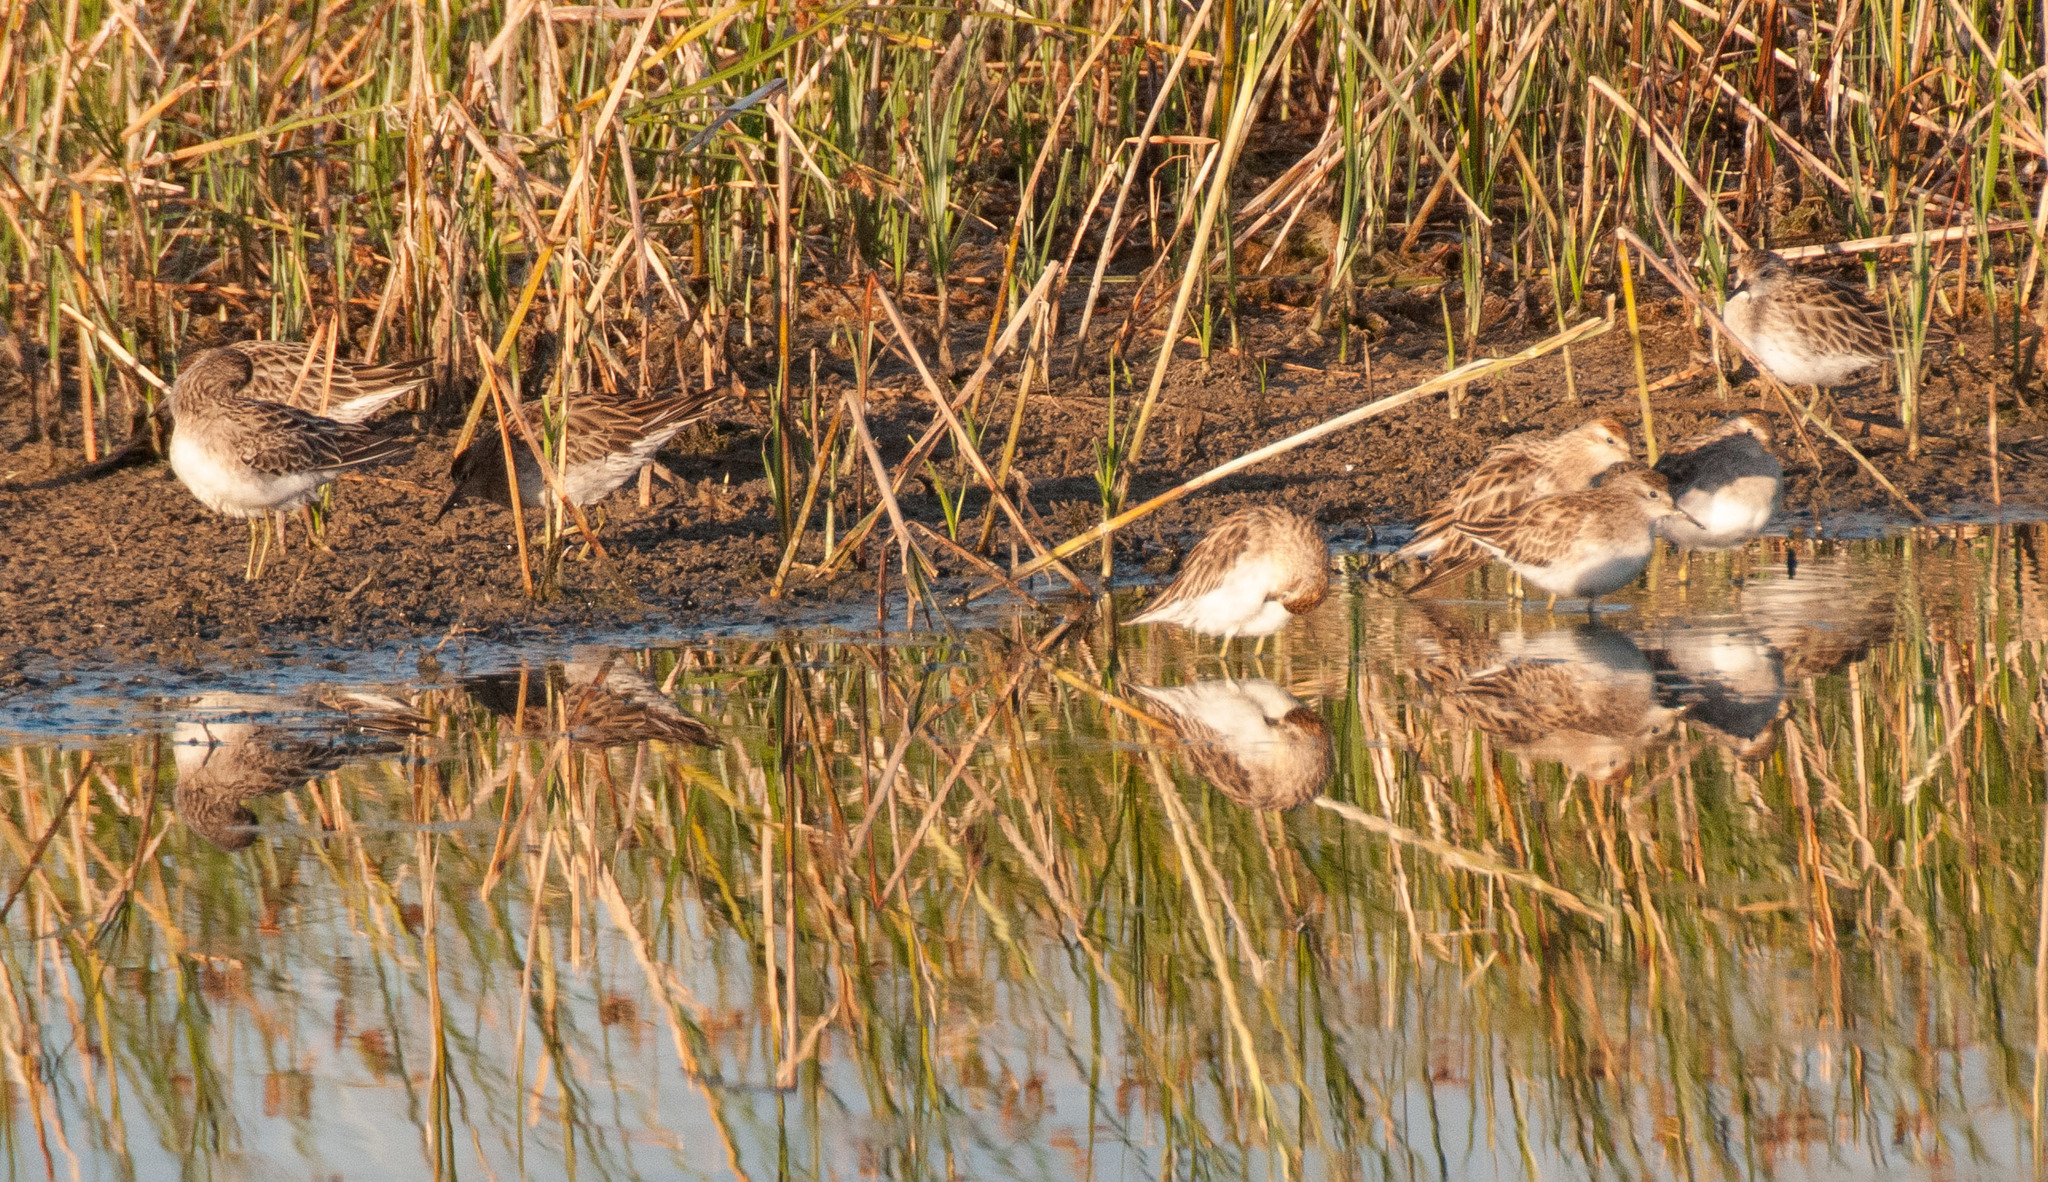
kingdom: Animalia
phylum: Chordata
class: Aves
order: Charadriiformes
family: Scolopacidae
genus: Calidris
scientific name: Calidris acuminata
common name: Sharp-tailed sandpiper
